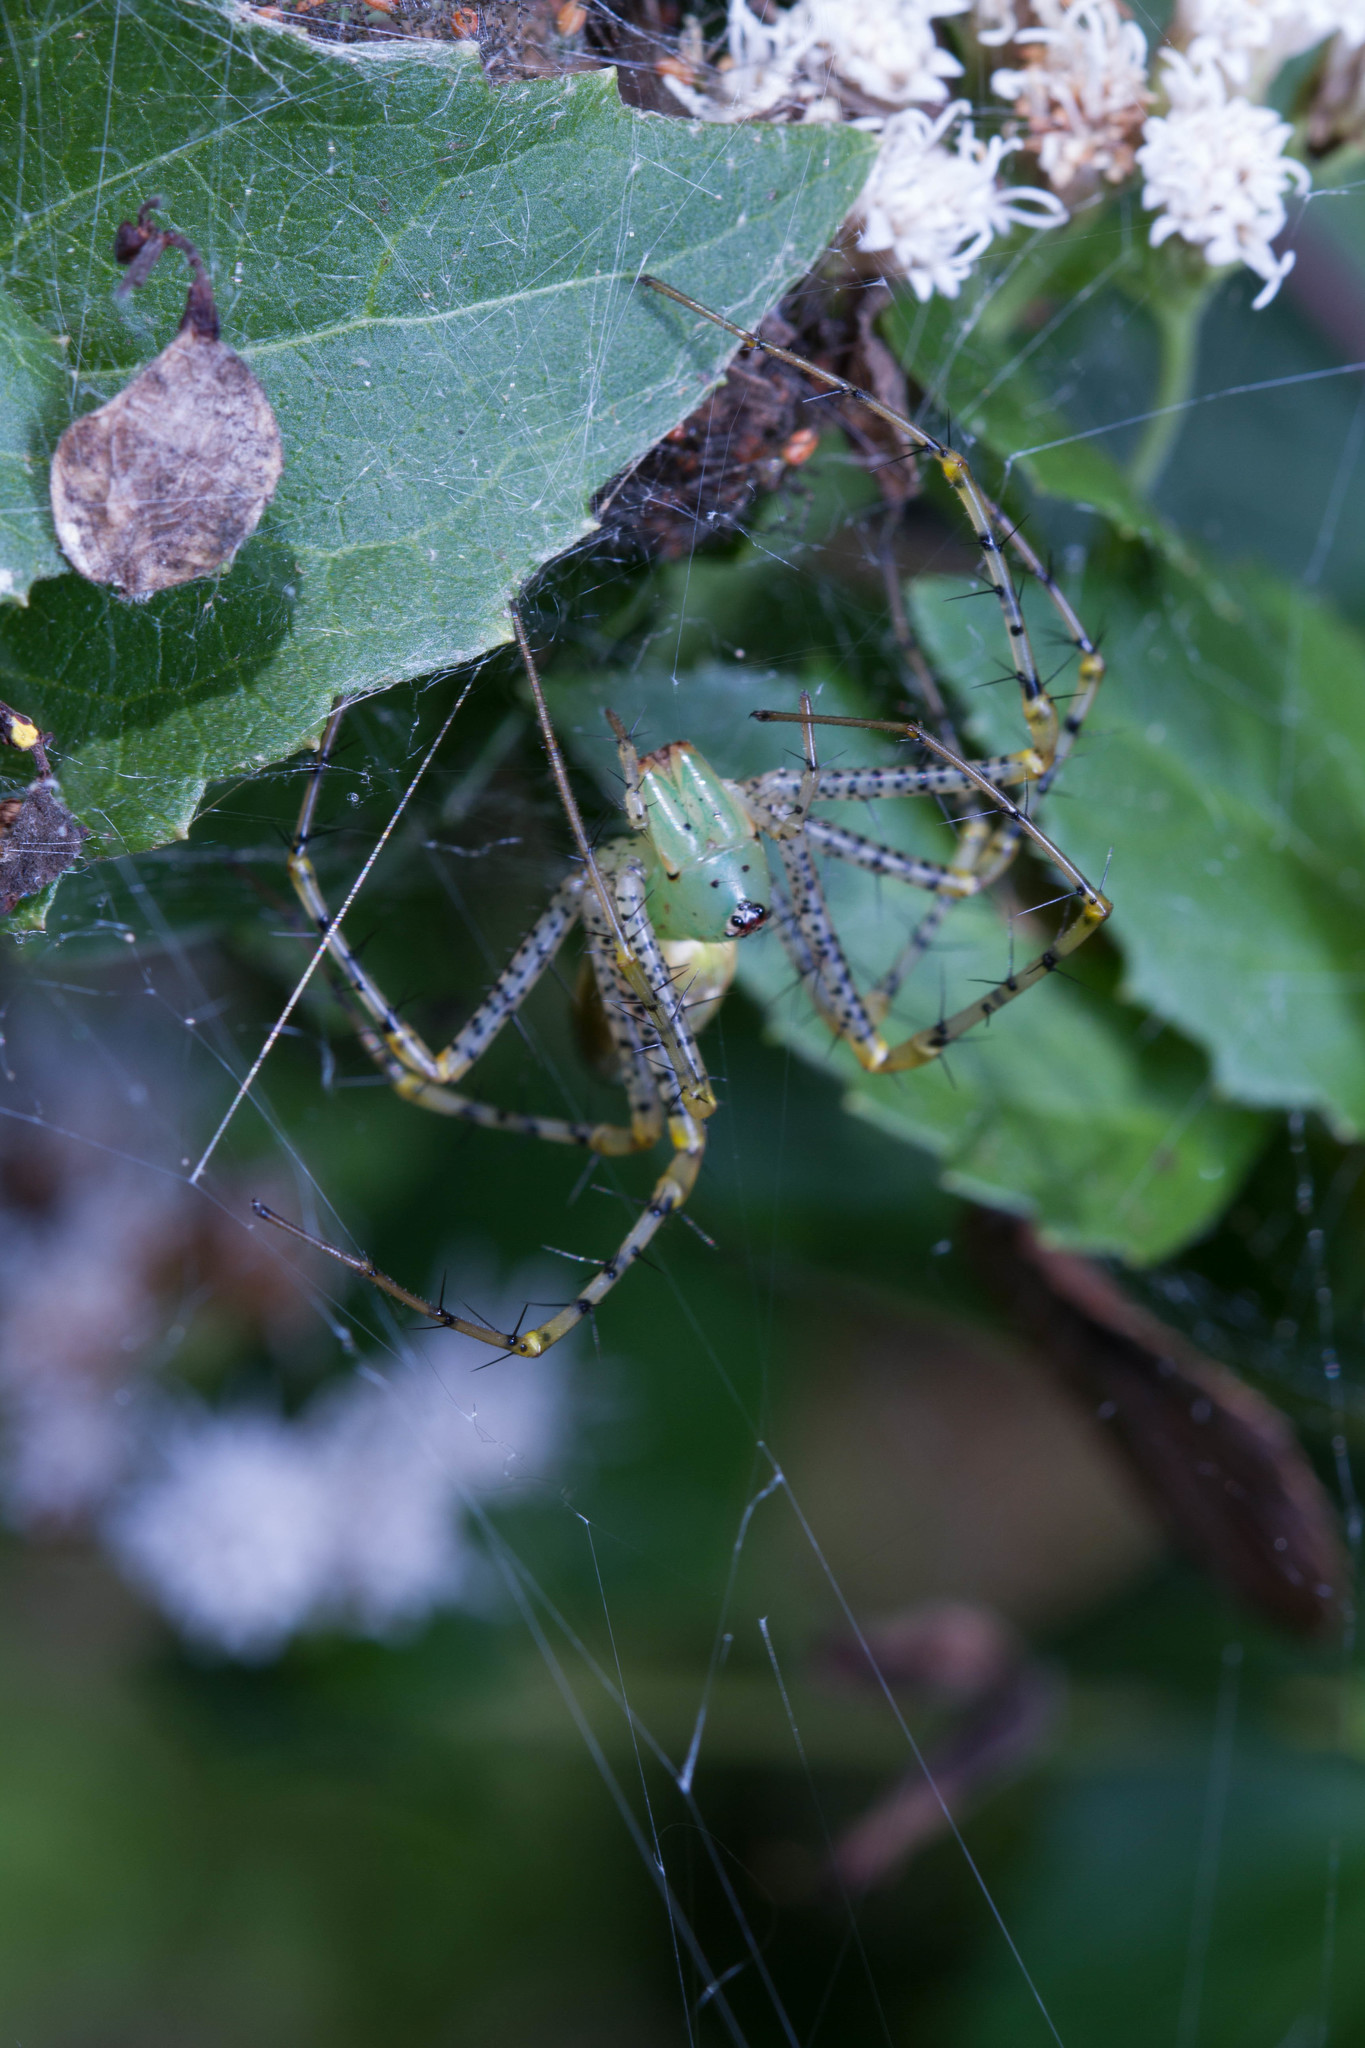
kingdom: Animalia
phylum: Arthropoda
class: Arachnida
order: Araneae
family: Oxyopidae
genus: Peucetia
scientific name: Peucetia viridans
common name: Lynx spiders
